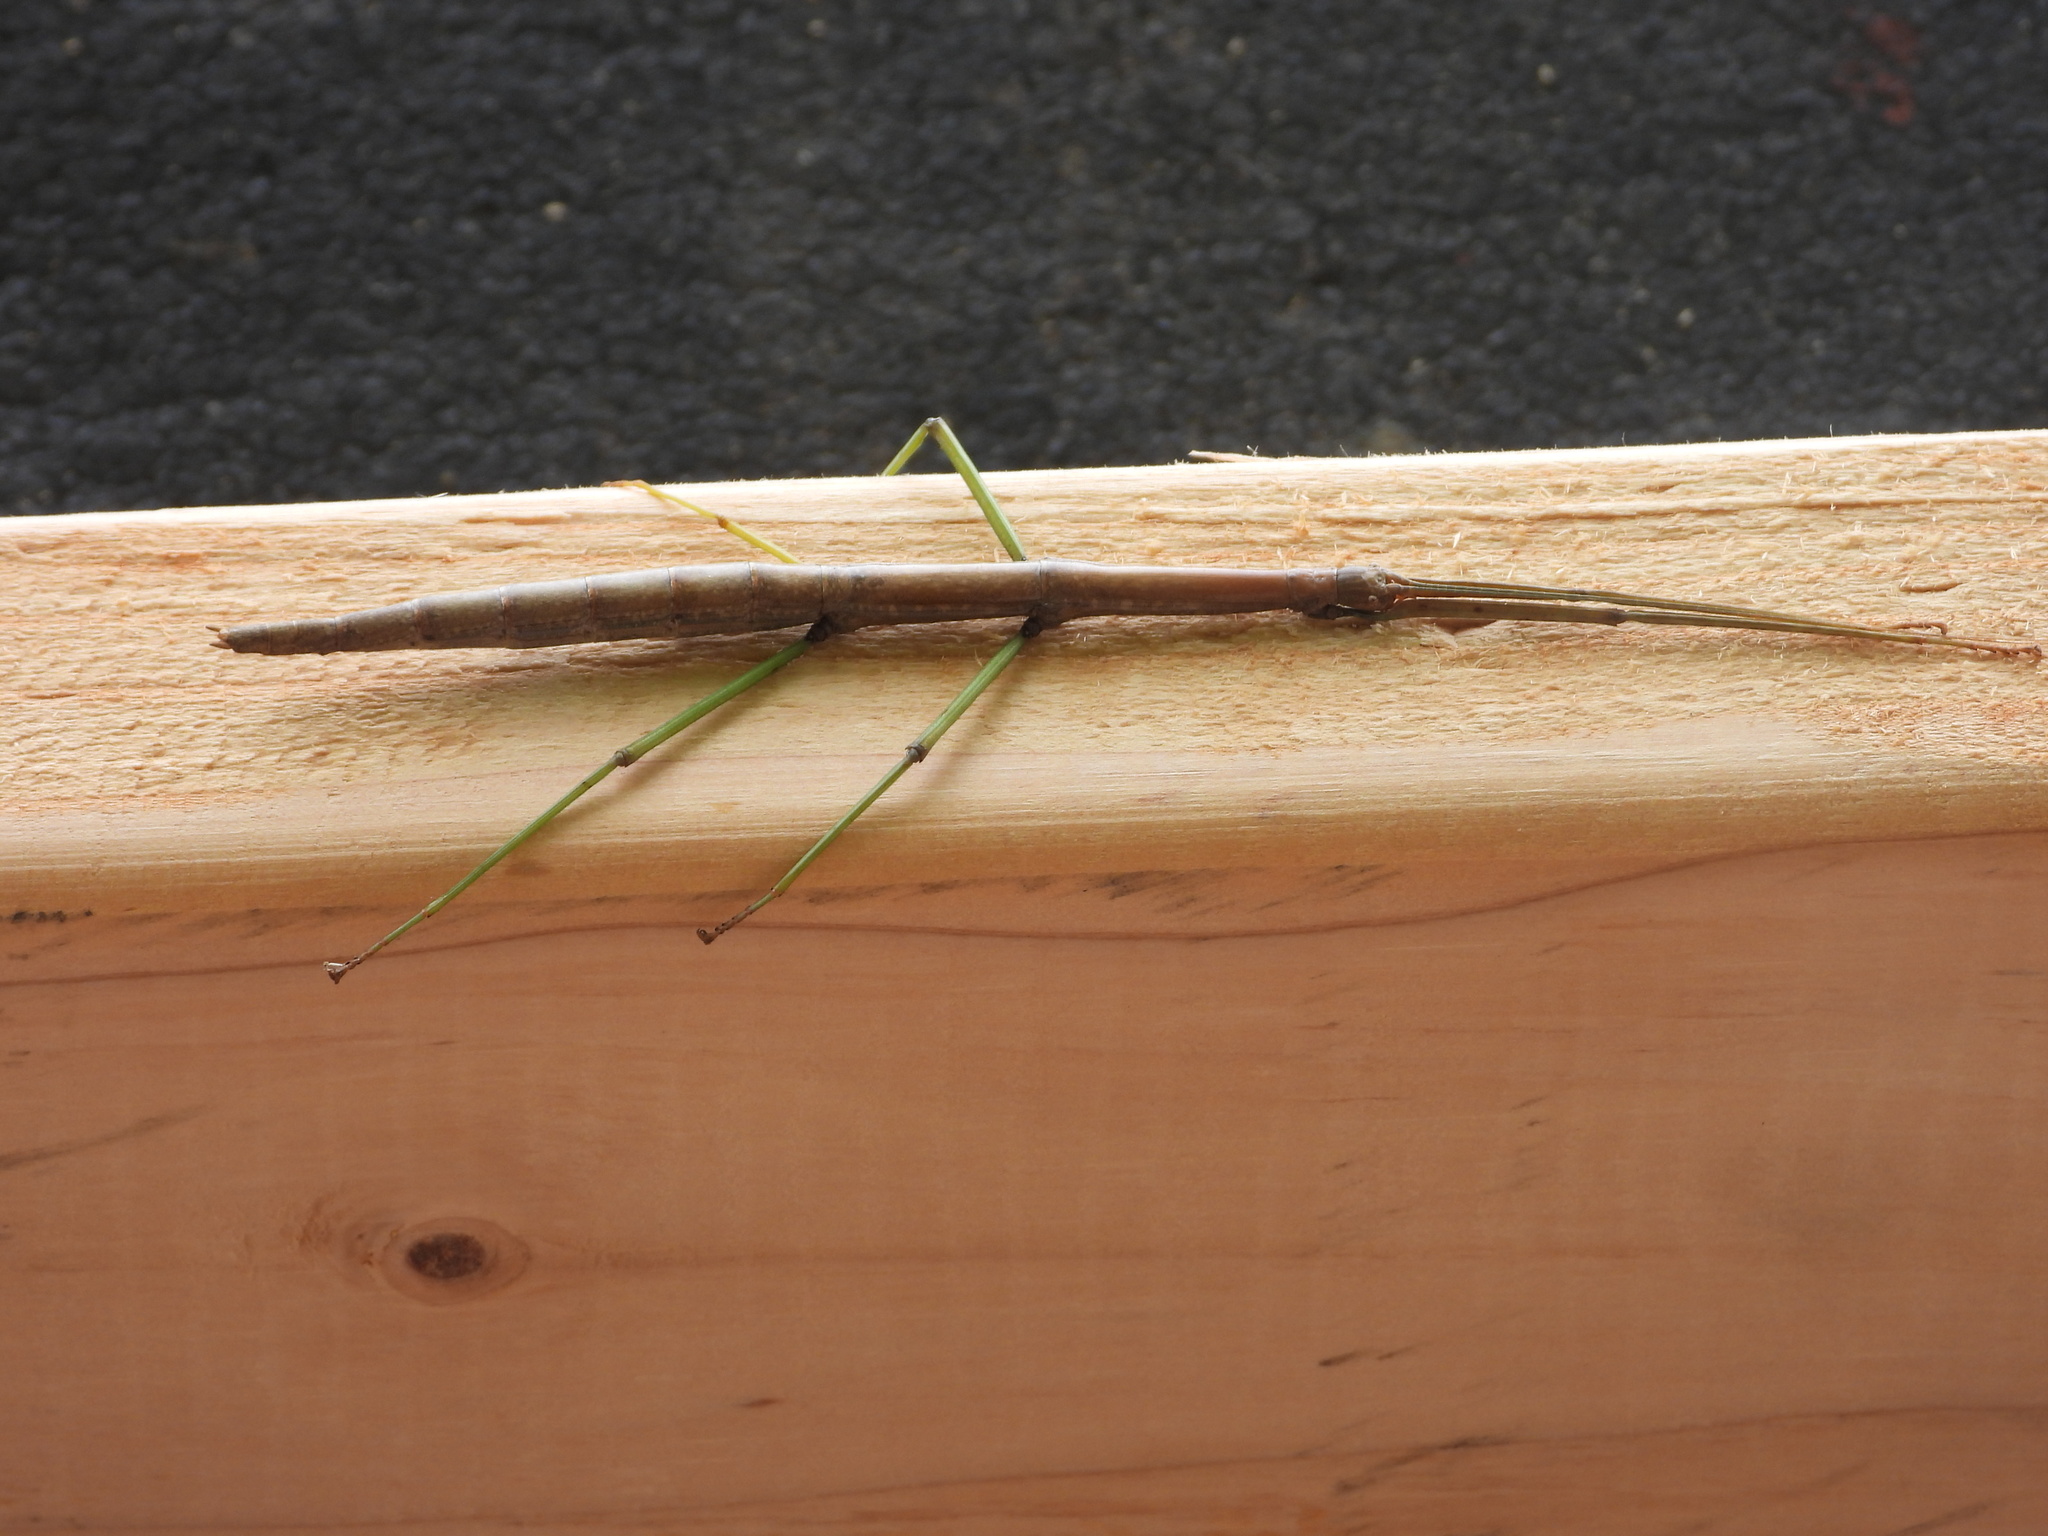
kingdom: Animalia
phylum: Arthropoda
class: Insecta
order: Phasmida
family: Diapheromeridae
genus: Diapheromera
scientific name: Diapheromera femorata
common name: Common american walkingstick
